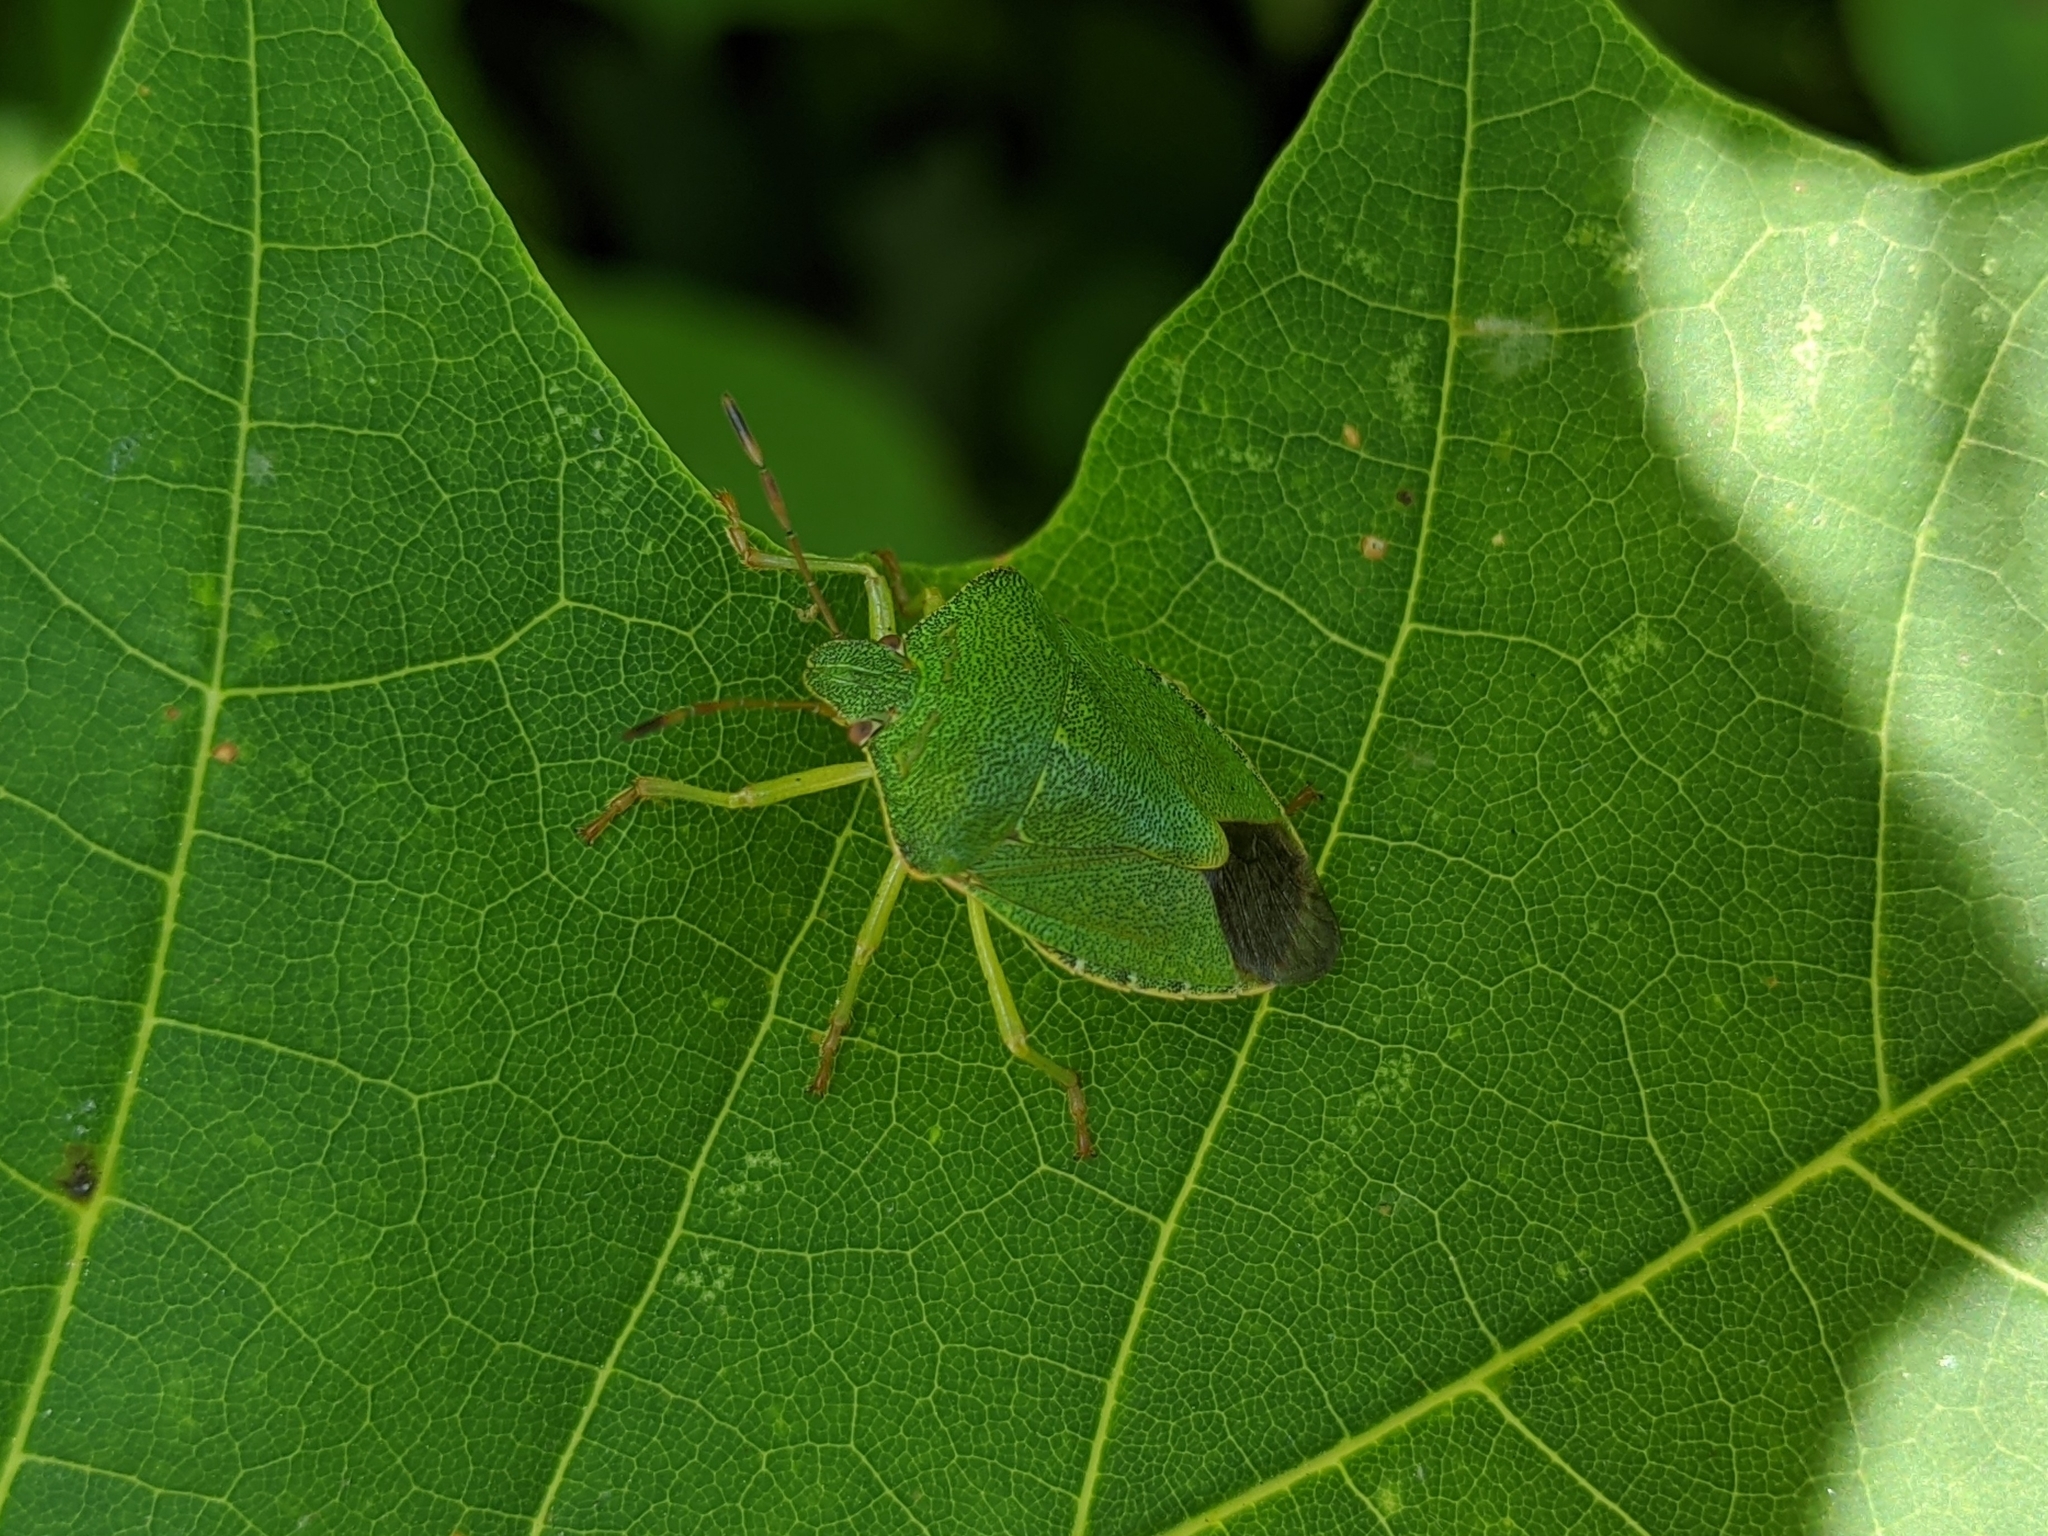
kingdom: Animalia
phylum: Arthropoda
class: Insecta
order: Hemiptera
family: Pentatomidae
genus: Palomena
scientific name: Palomena prasina
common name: Green shieldbug
